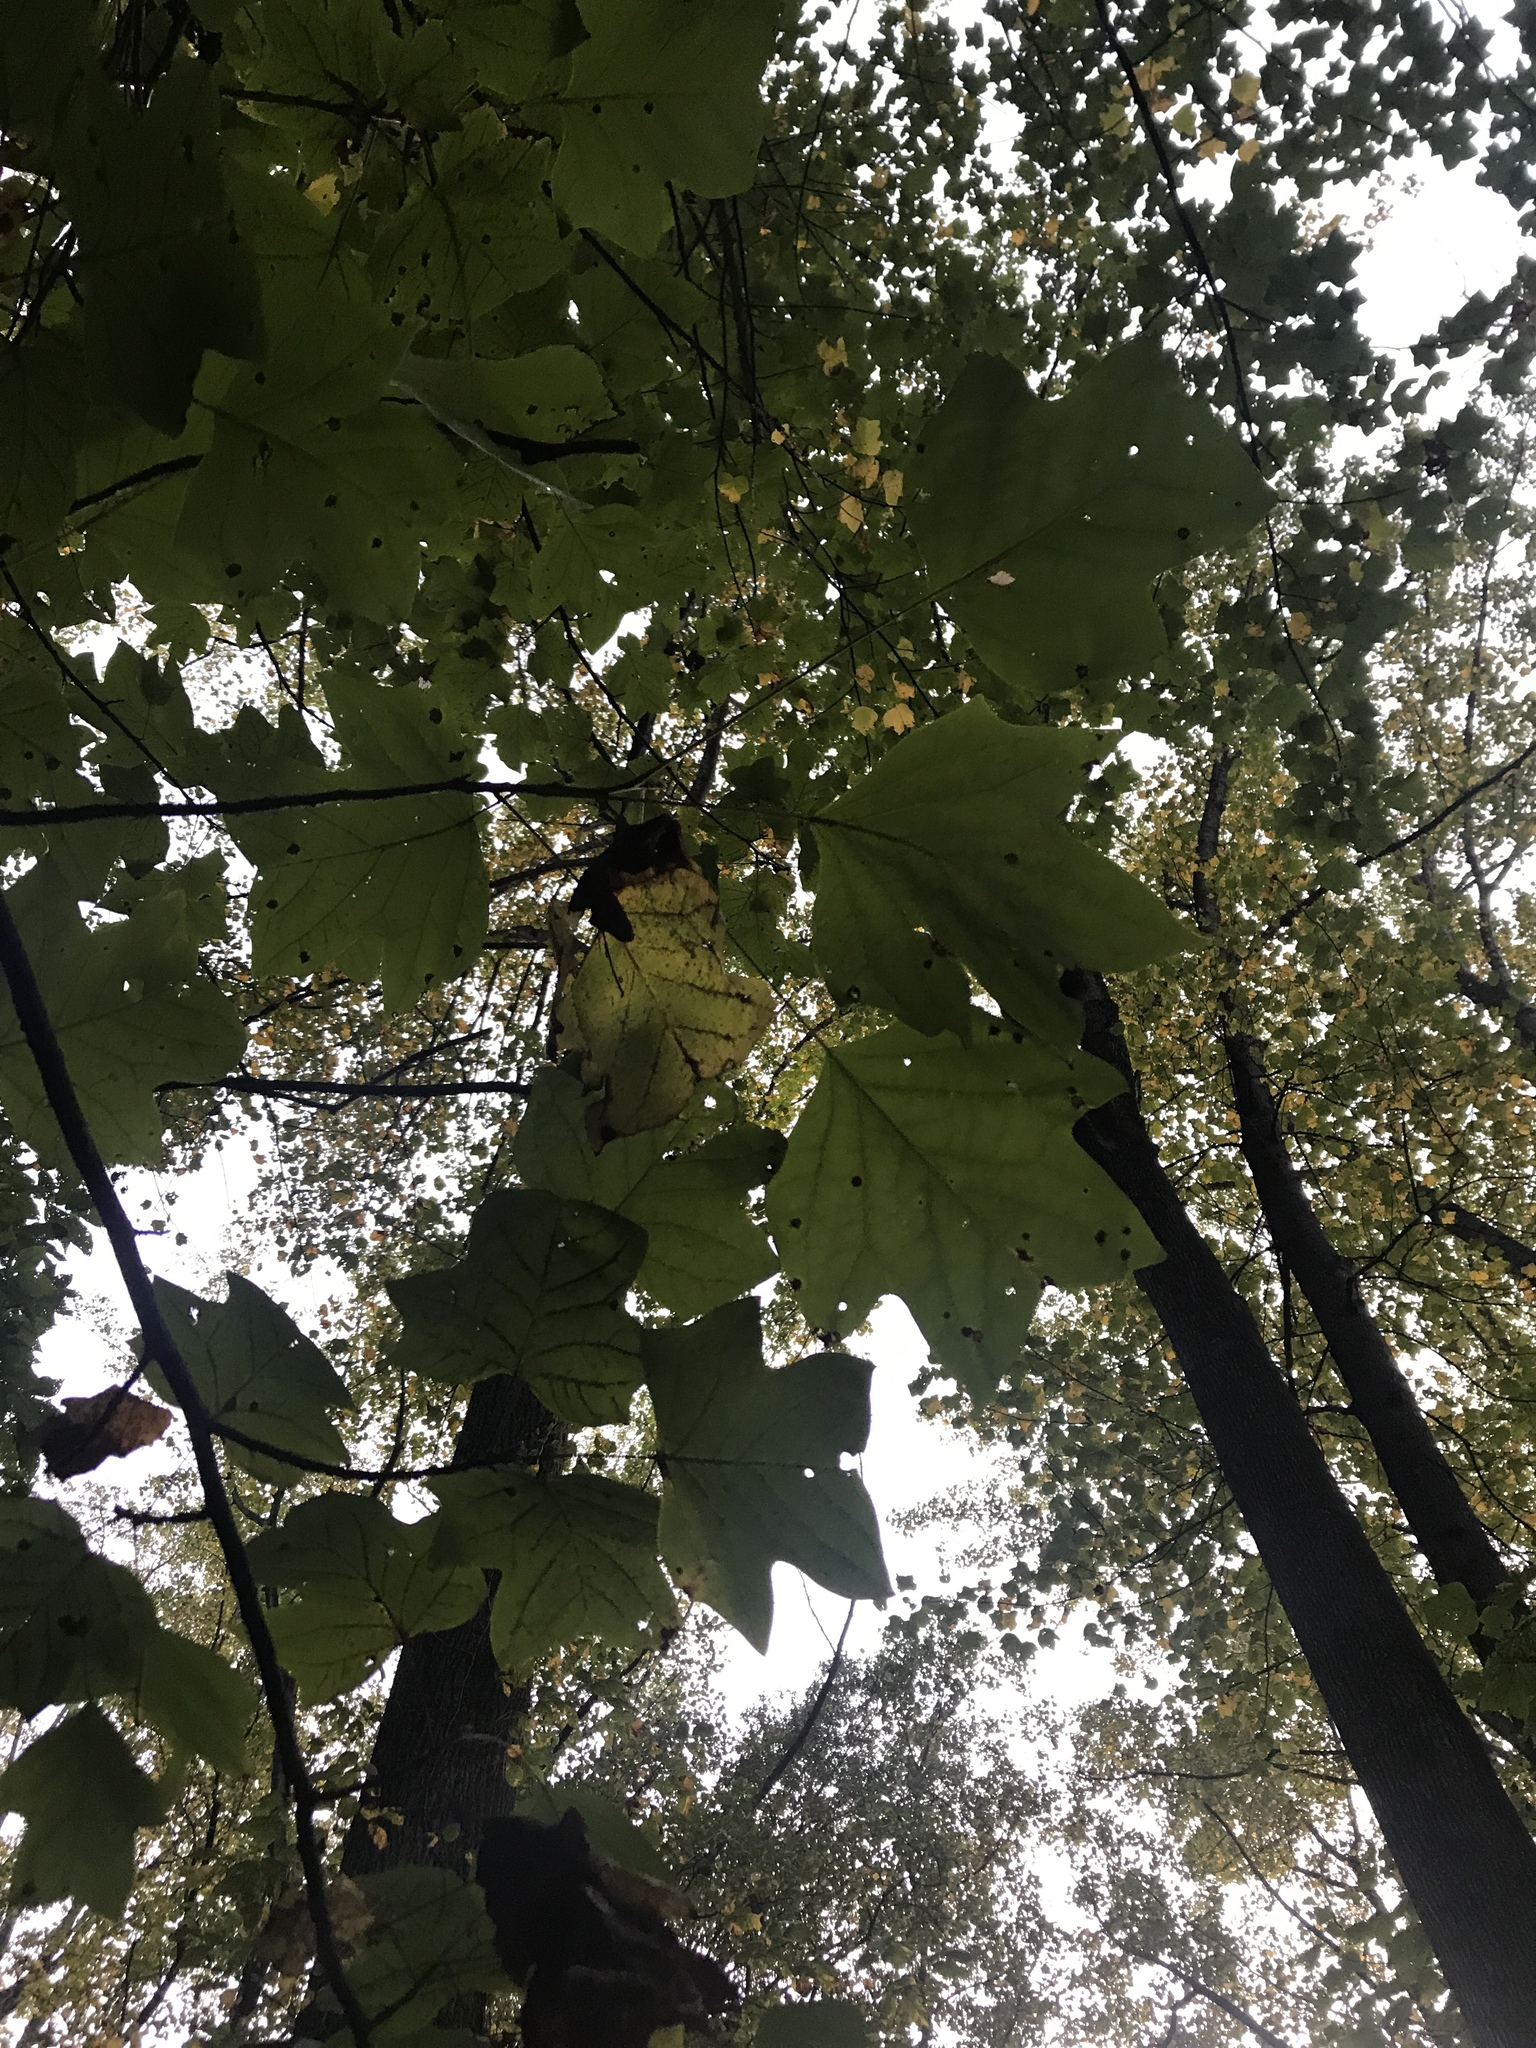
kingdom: Plantae
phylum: Tracheophyta
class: Magnoliopsida
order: Magnoliales
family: Magnoliaceae
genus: Liriodendron
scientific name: Liriodendron tulipifera
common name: Tulip tree
